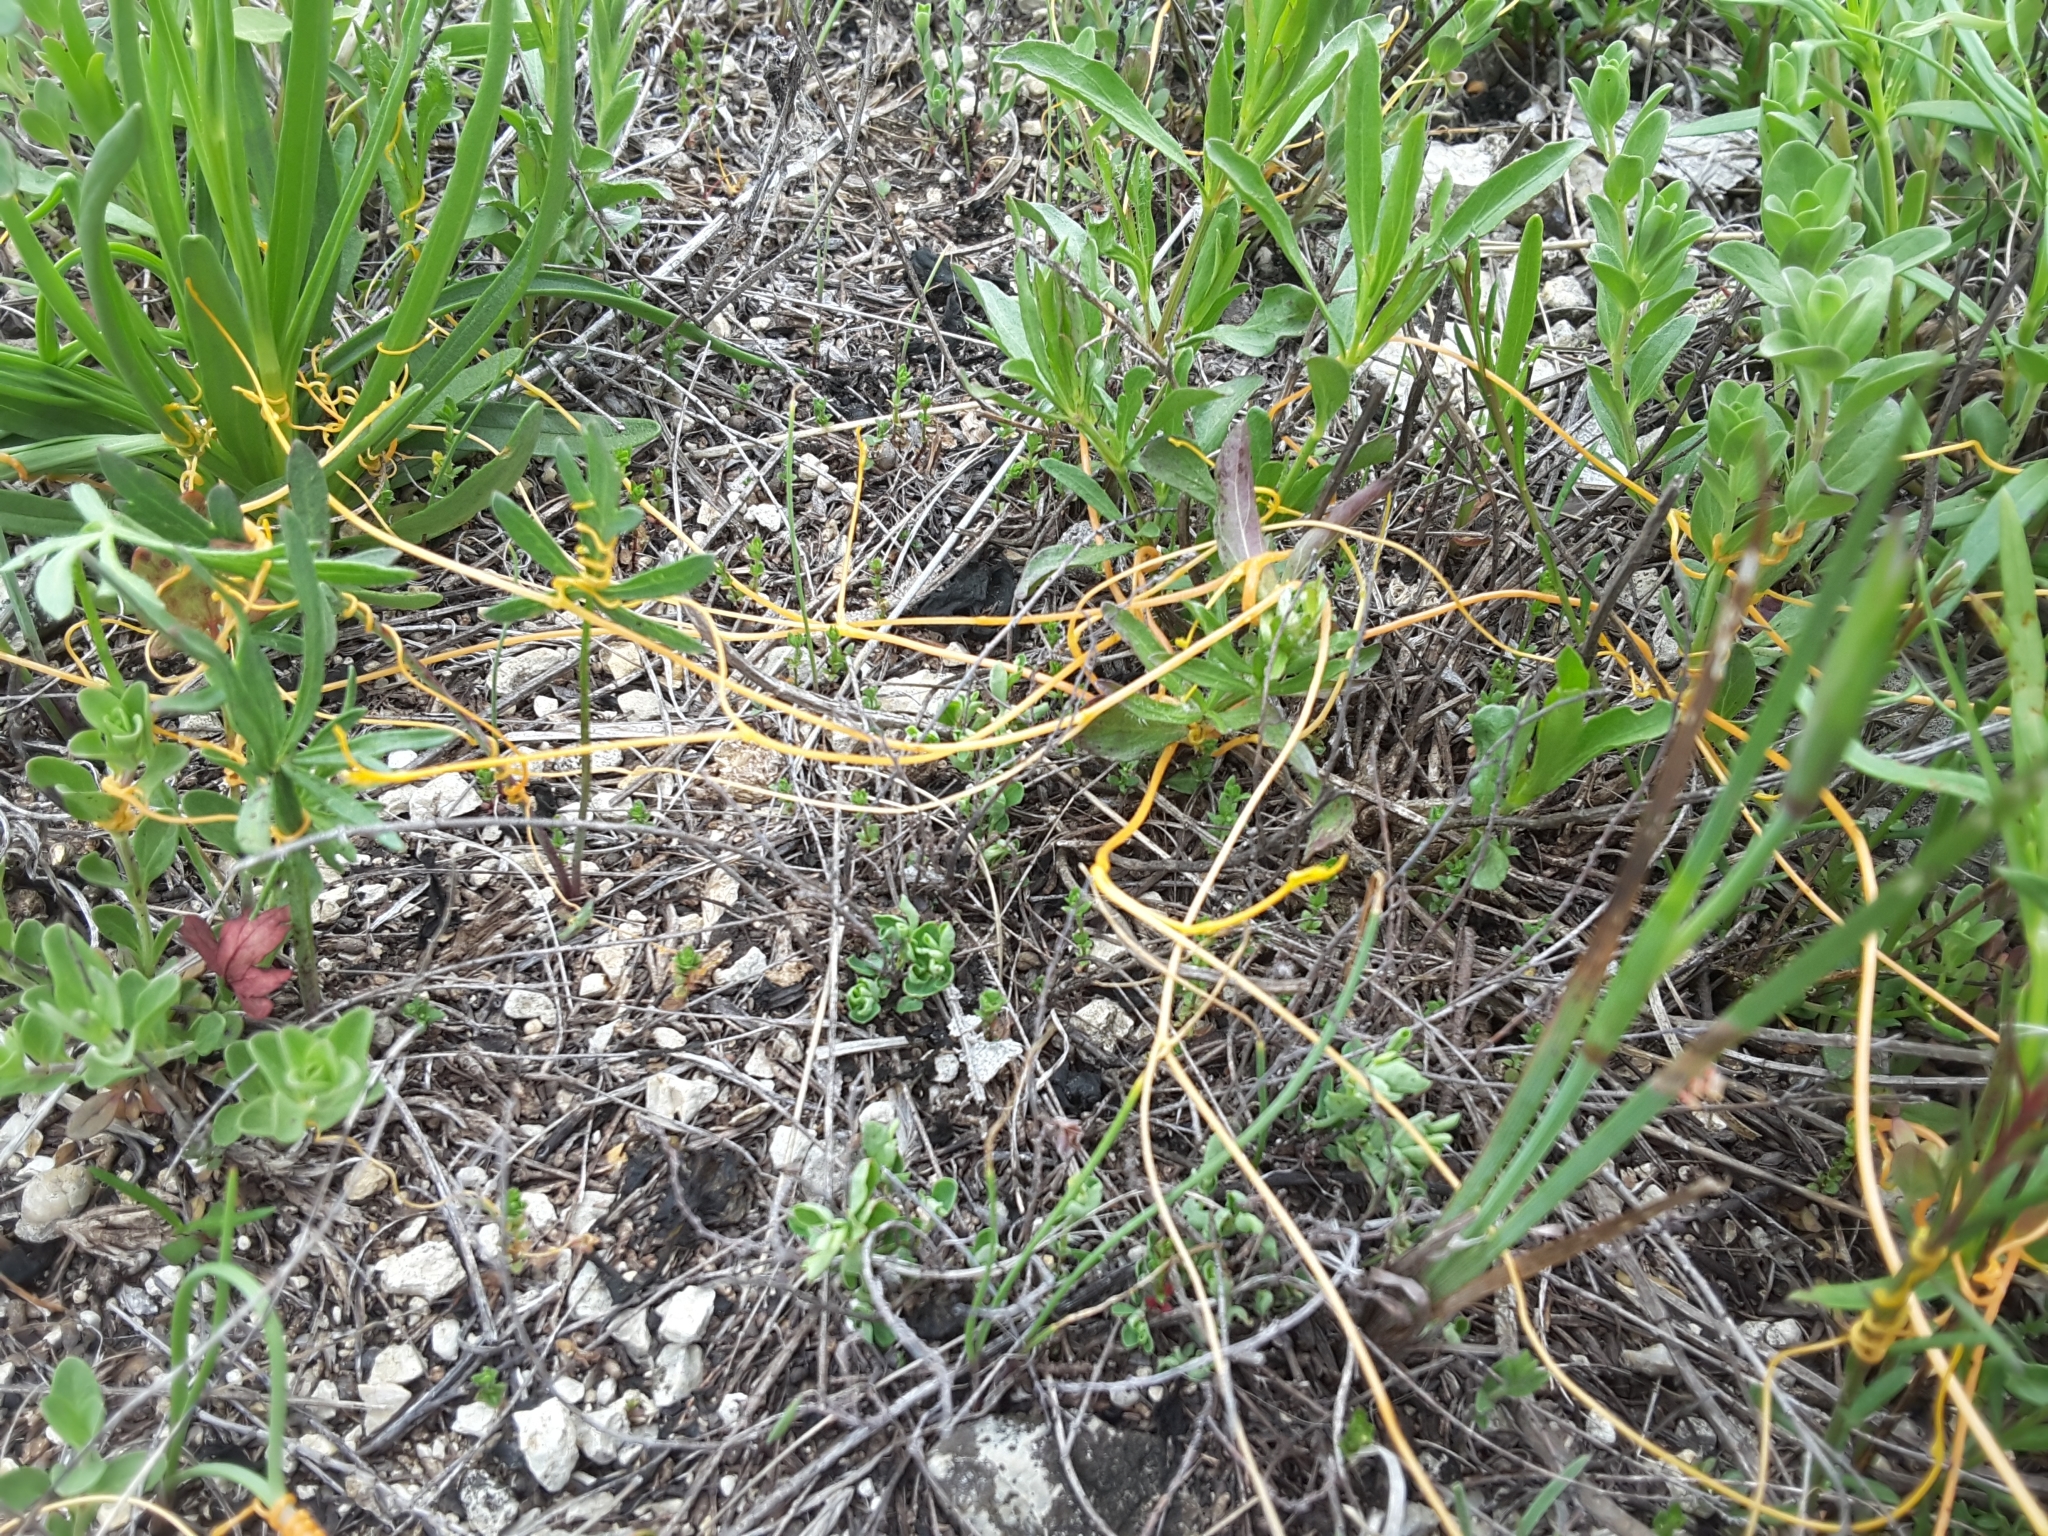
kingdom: Plantae
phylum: Tracheophyta
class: Magnoliopsida
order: Solanales
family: Convolvulaceae
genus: Cuscuta
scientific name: Cuscuta pentagona
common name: Fiveangled dodder
